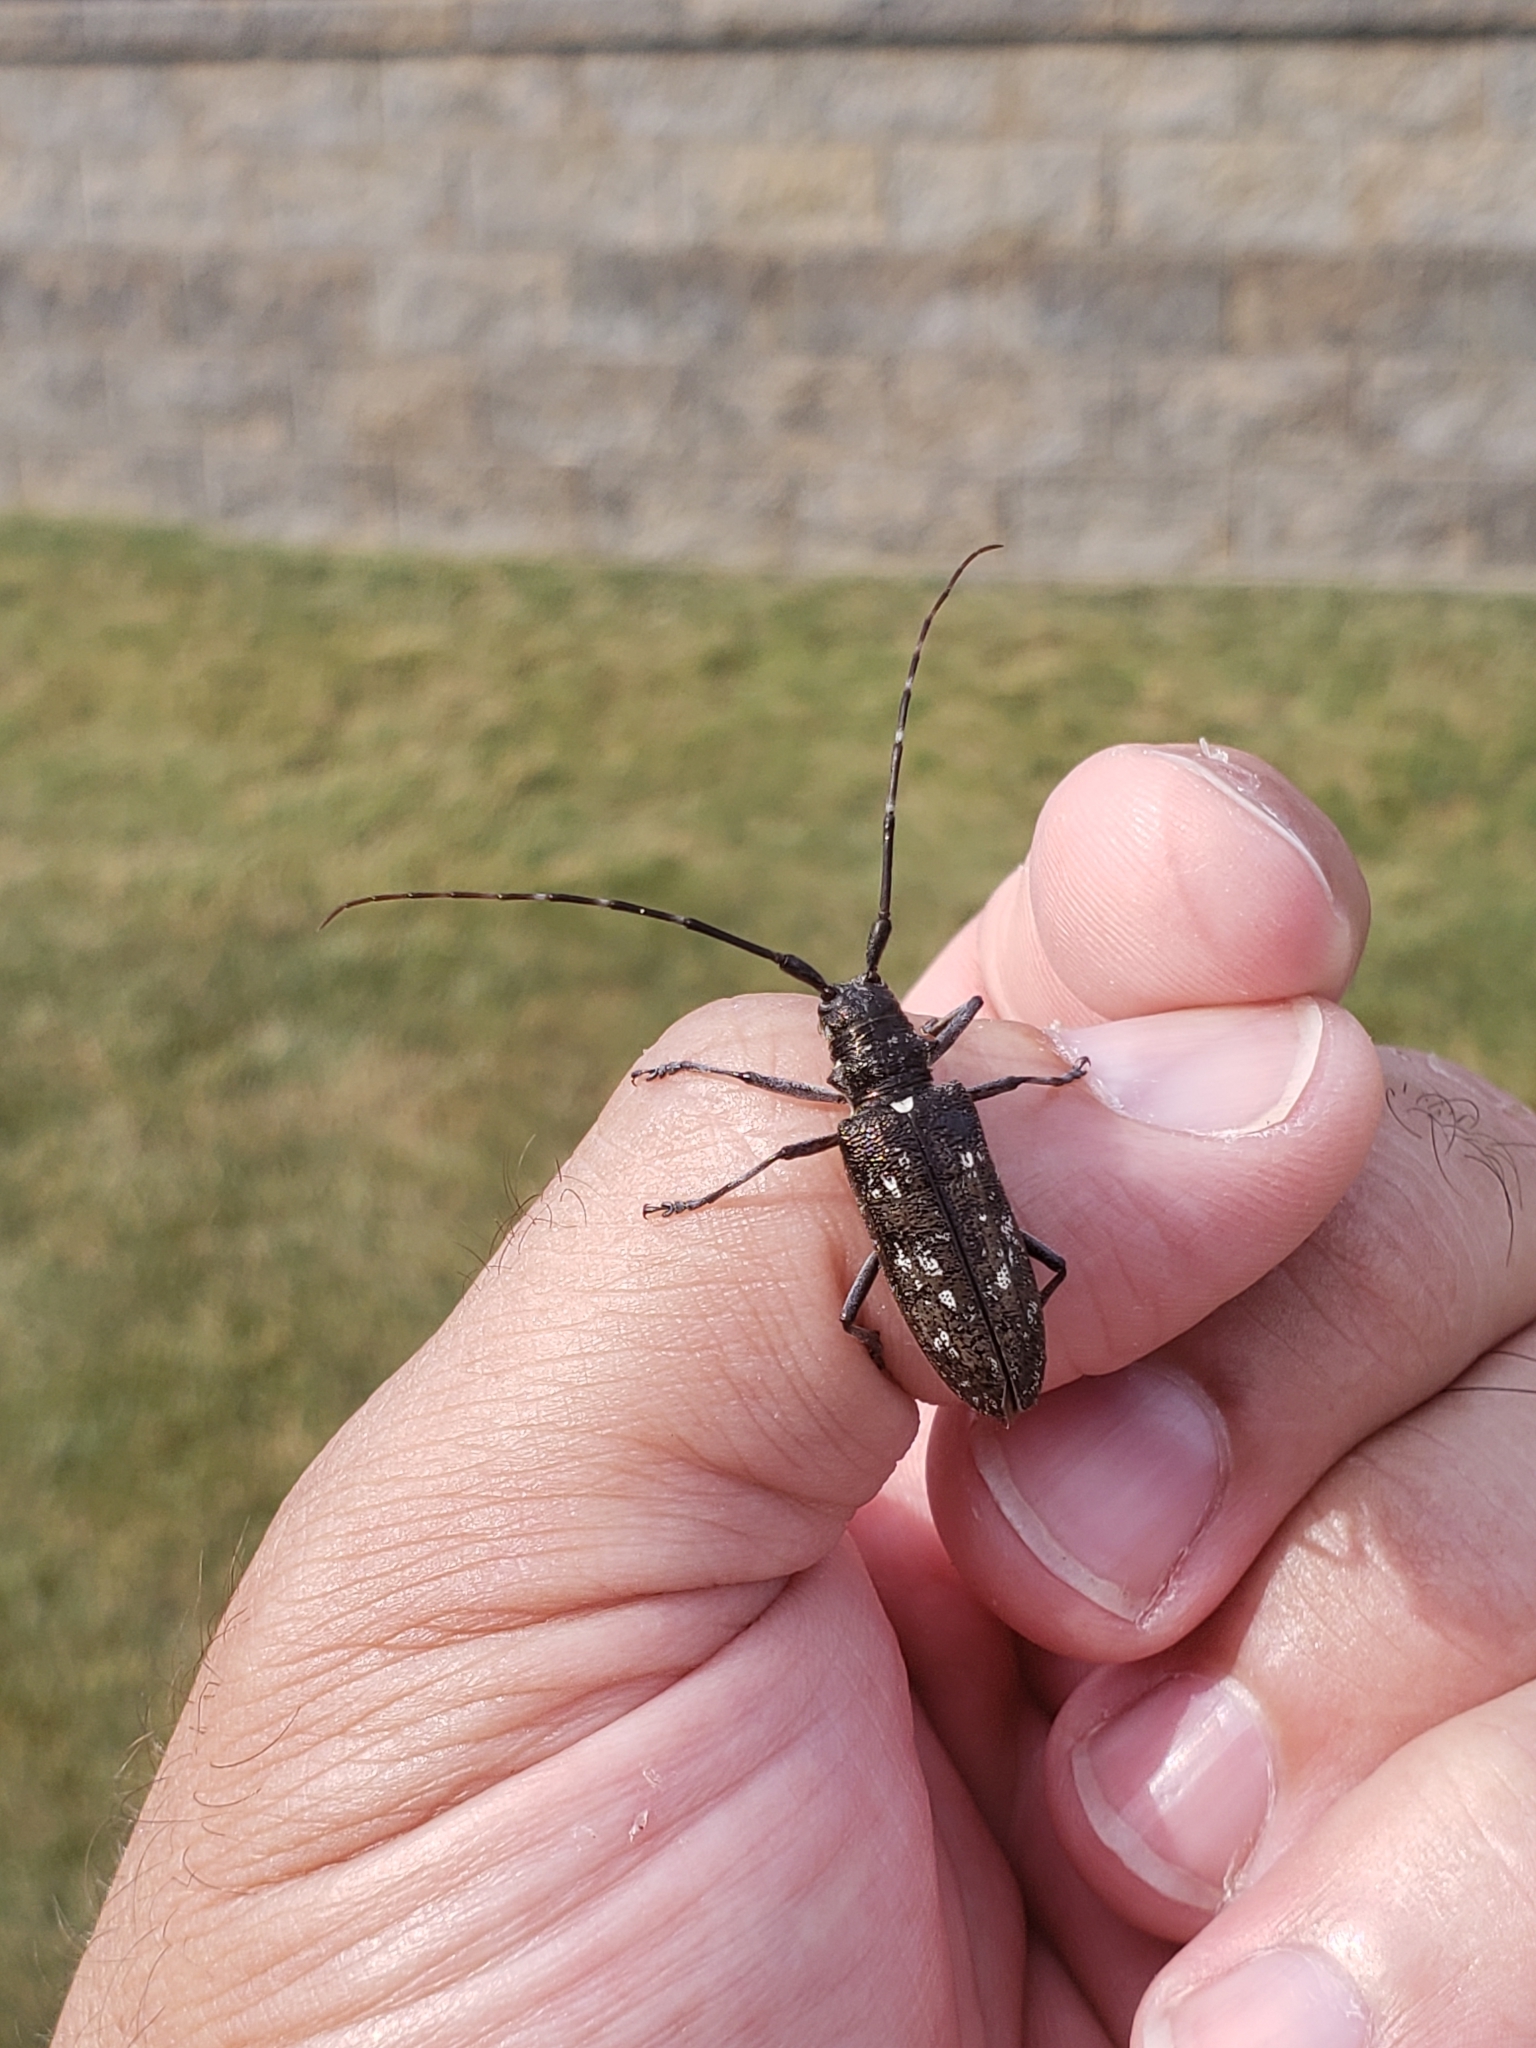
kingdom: Animalia
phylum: Arthropoda
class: Insecta
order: Coleoptera
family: Cerambycidae
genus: Monochamus
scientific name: Monochamus scutellatus
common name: White-spotted sawyer beetle
